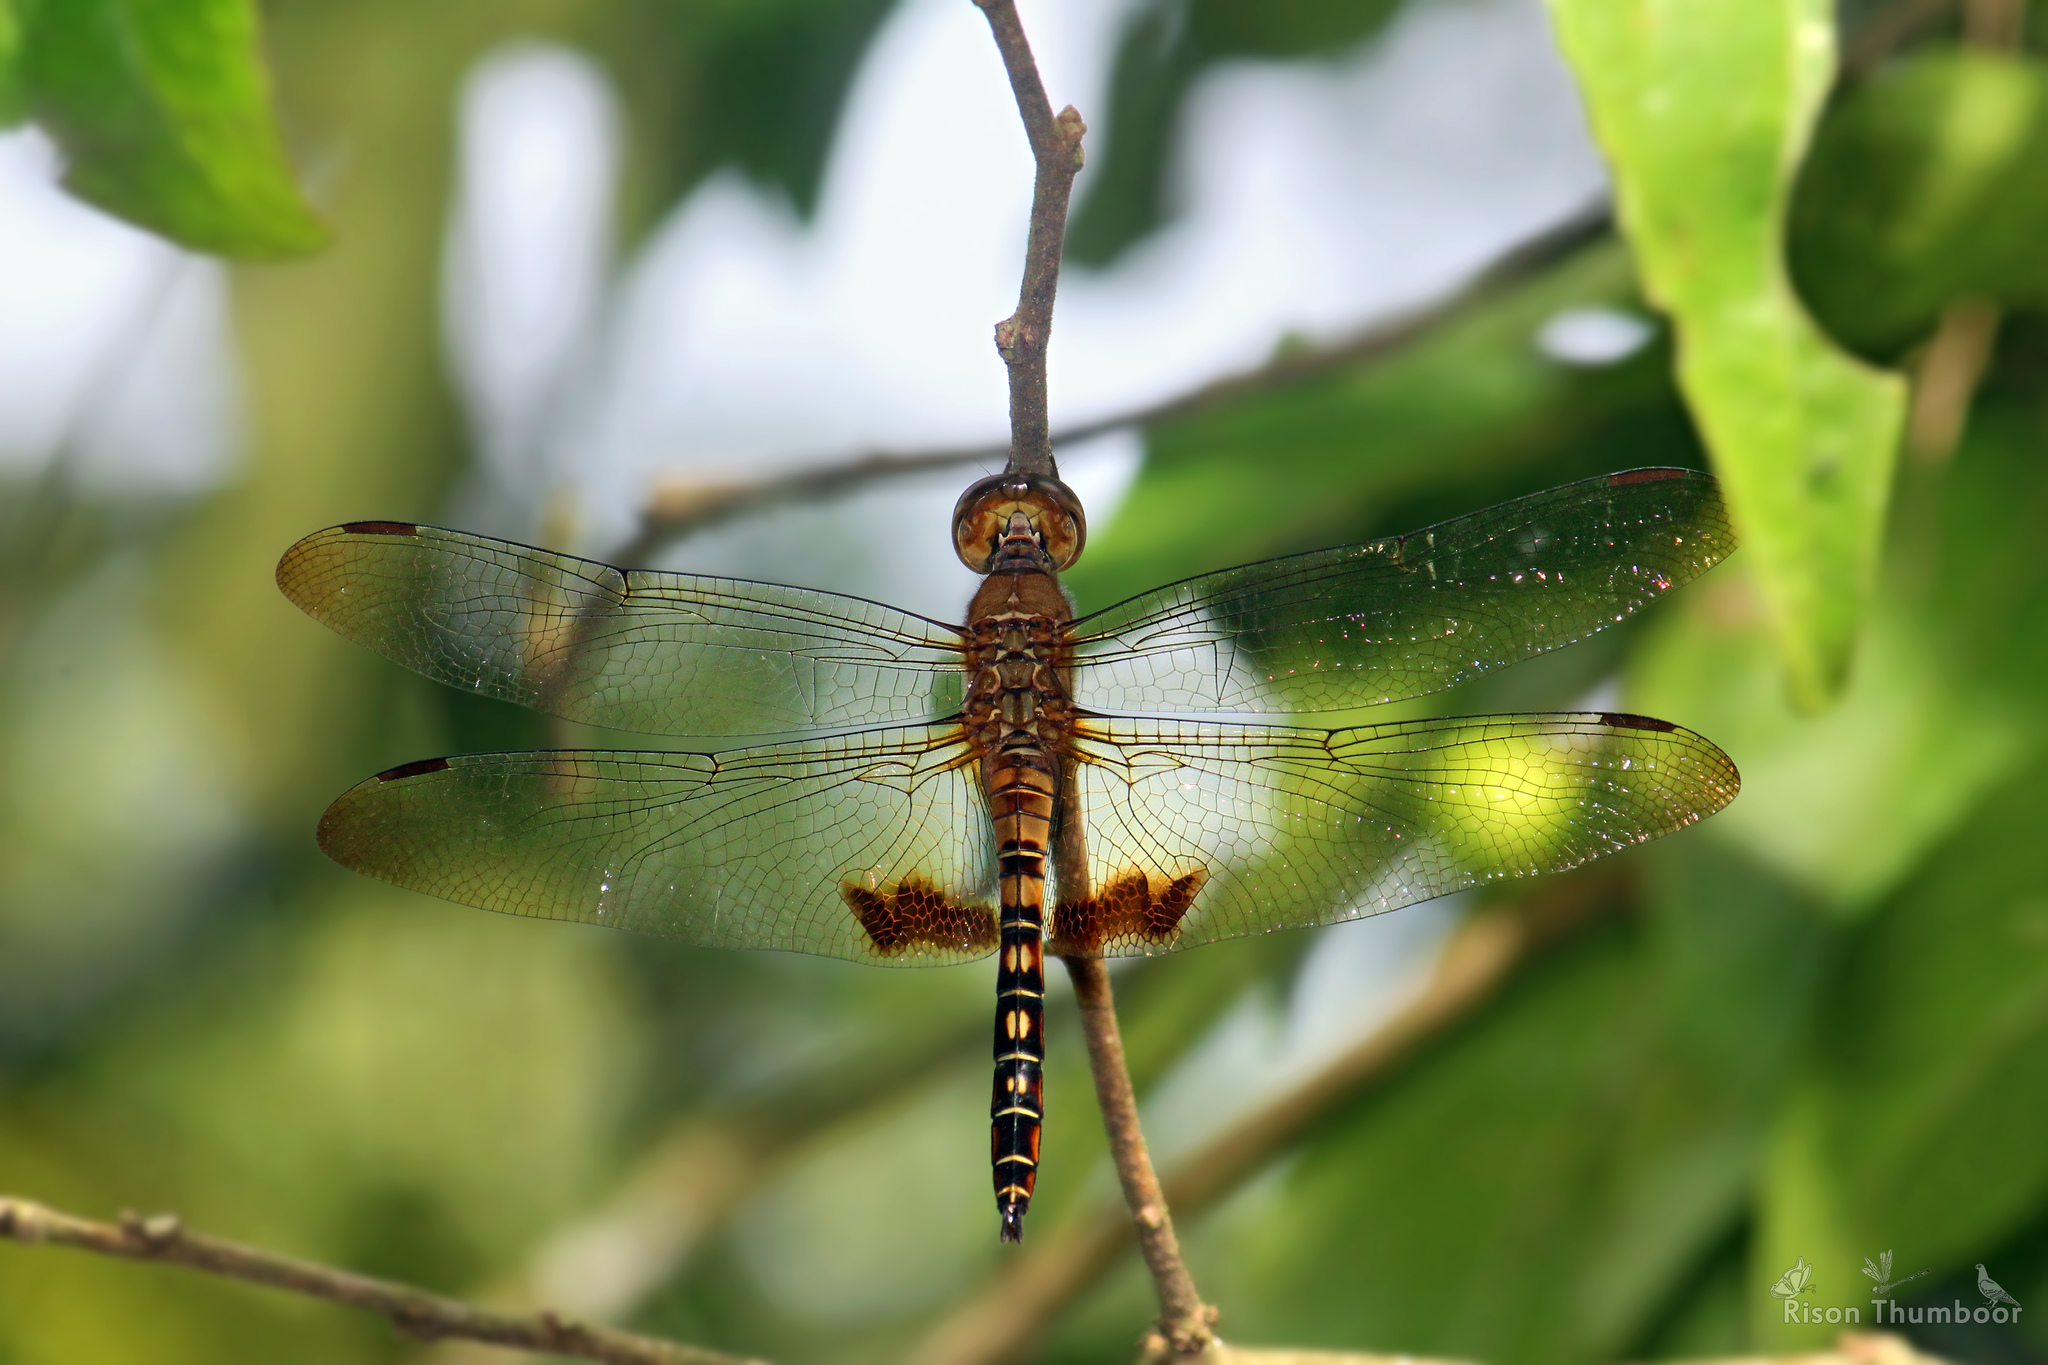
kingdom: Animalia
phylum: Arthropoda
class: Insecta
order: Odonata
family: Libellulidae
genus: Hydrobasileus
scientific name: Hydrobasileus croceus
